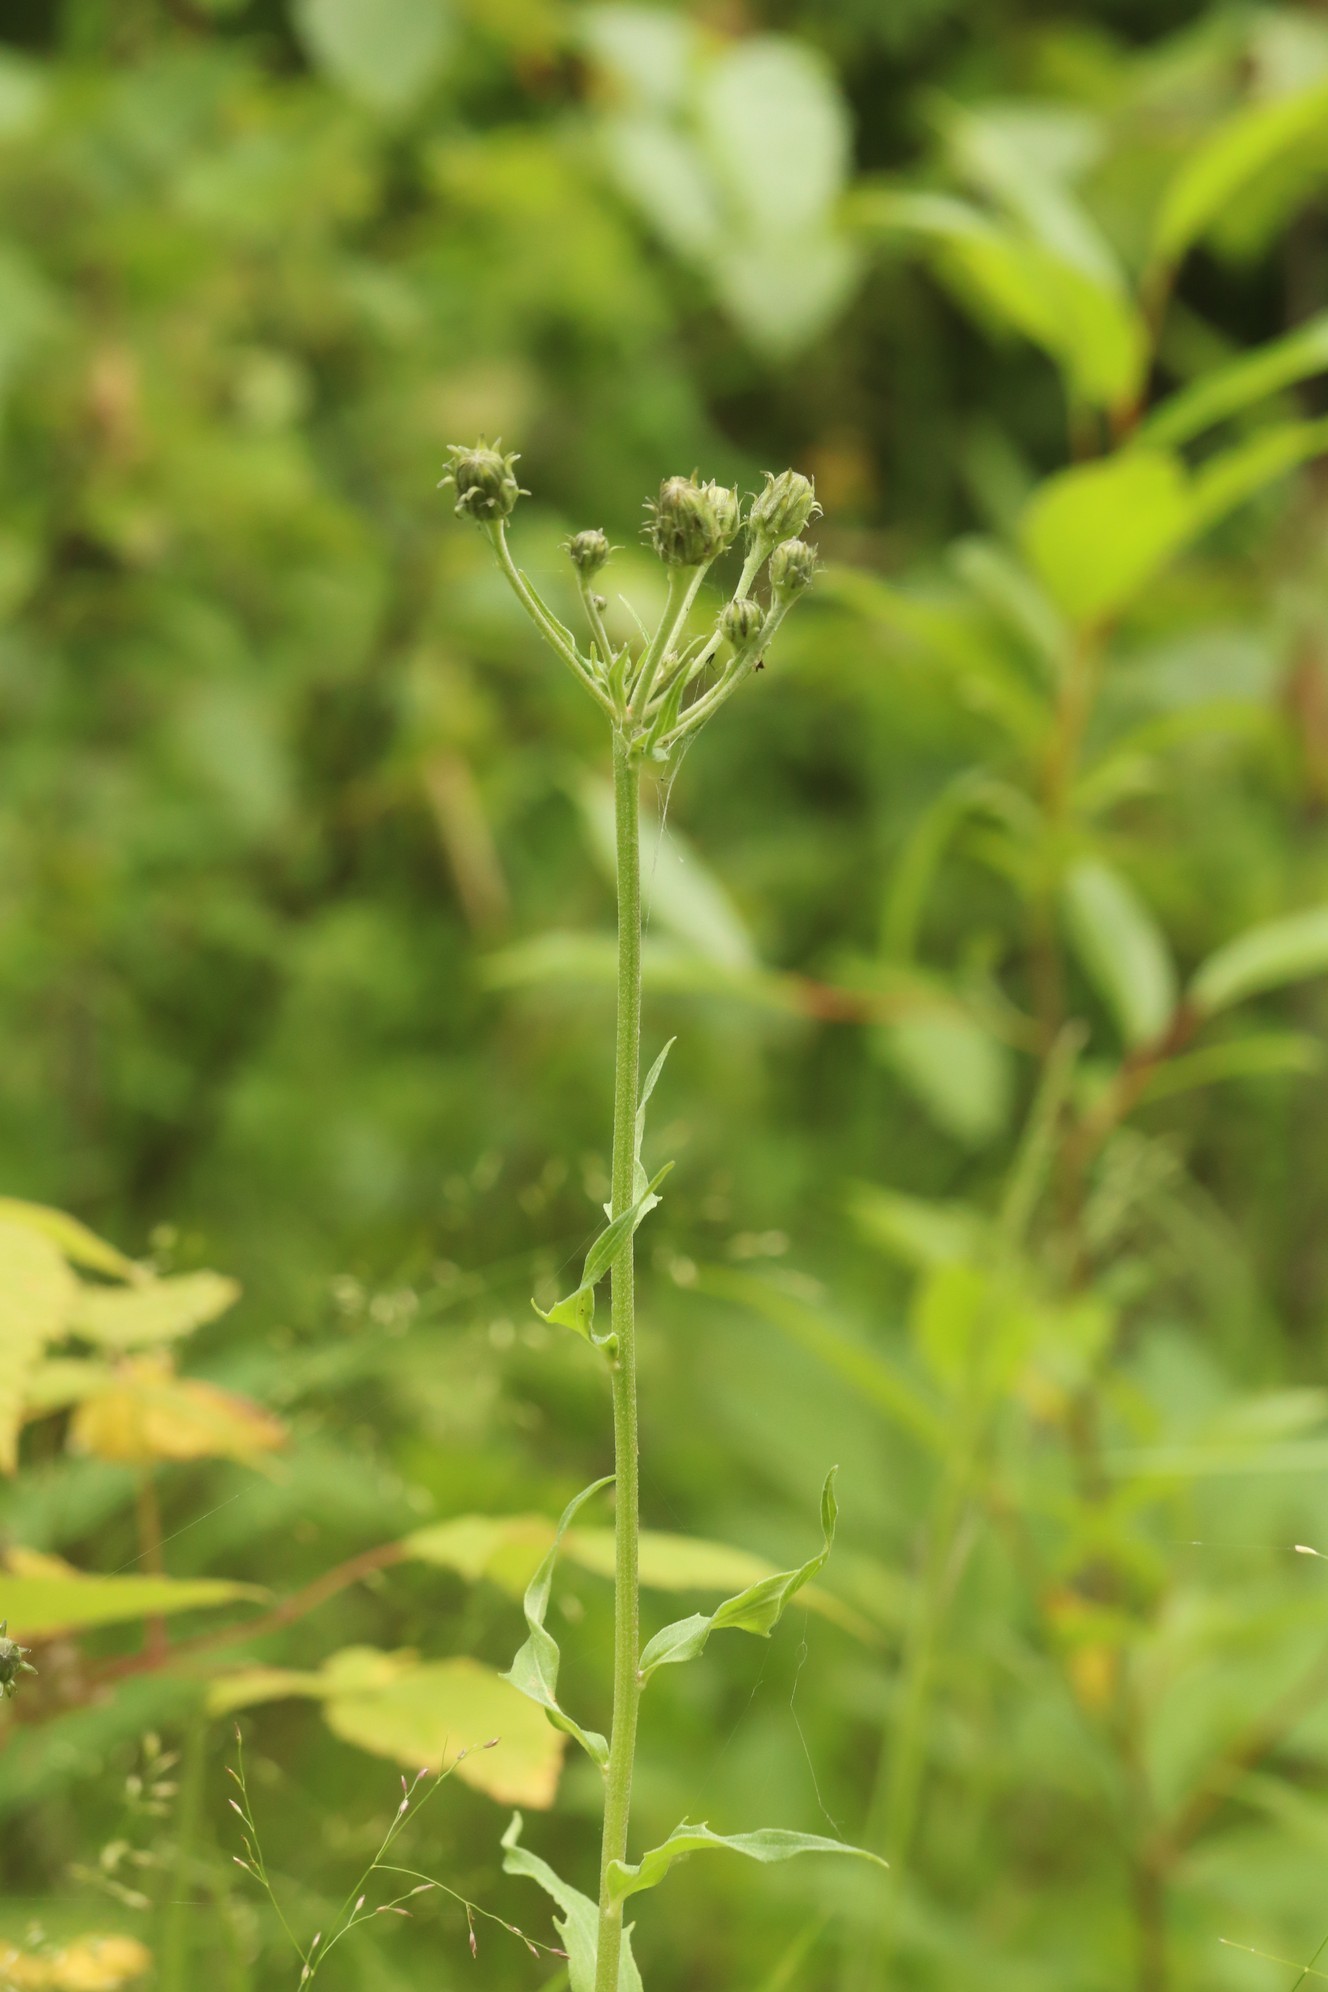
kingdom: Plantae
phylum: Tracheophyta
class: Magnoliopsida
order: Asterales
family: Asteraceae
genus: Hieracium
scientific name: Hieracium umbellatum
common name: Northern hawkweed
